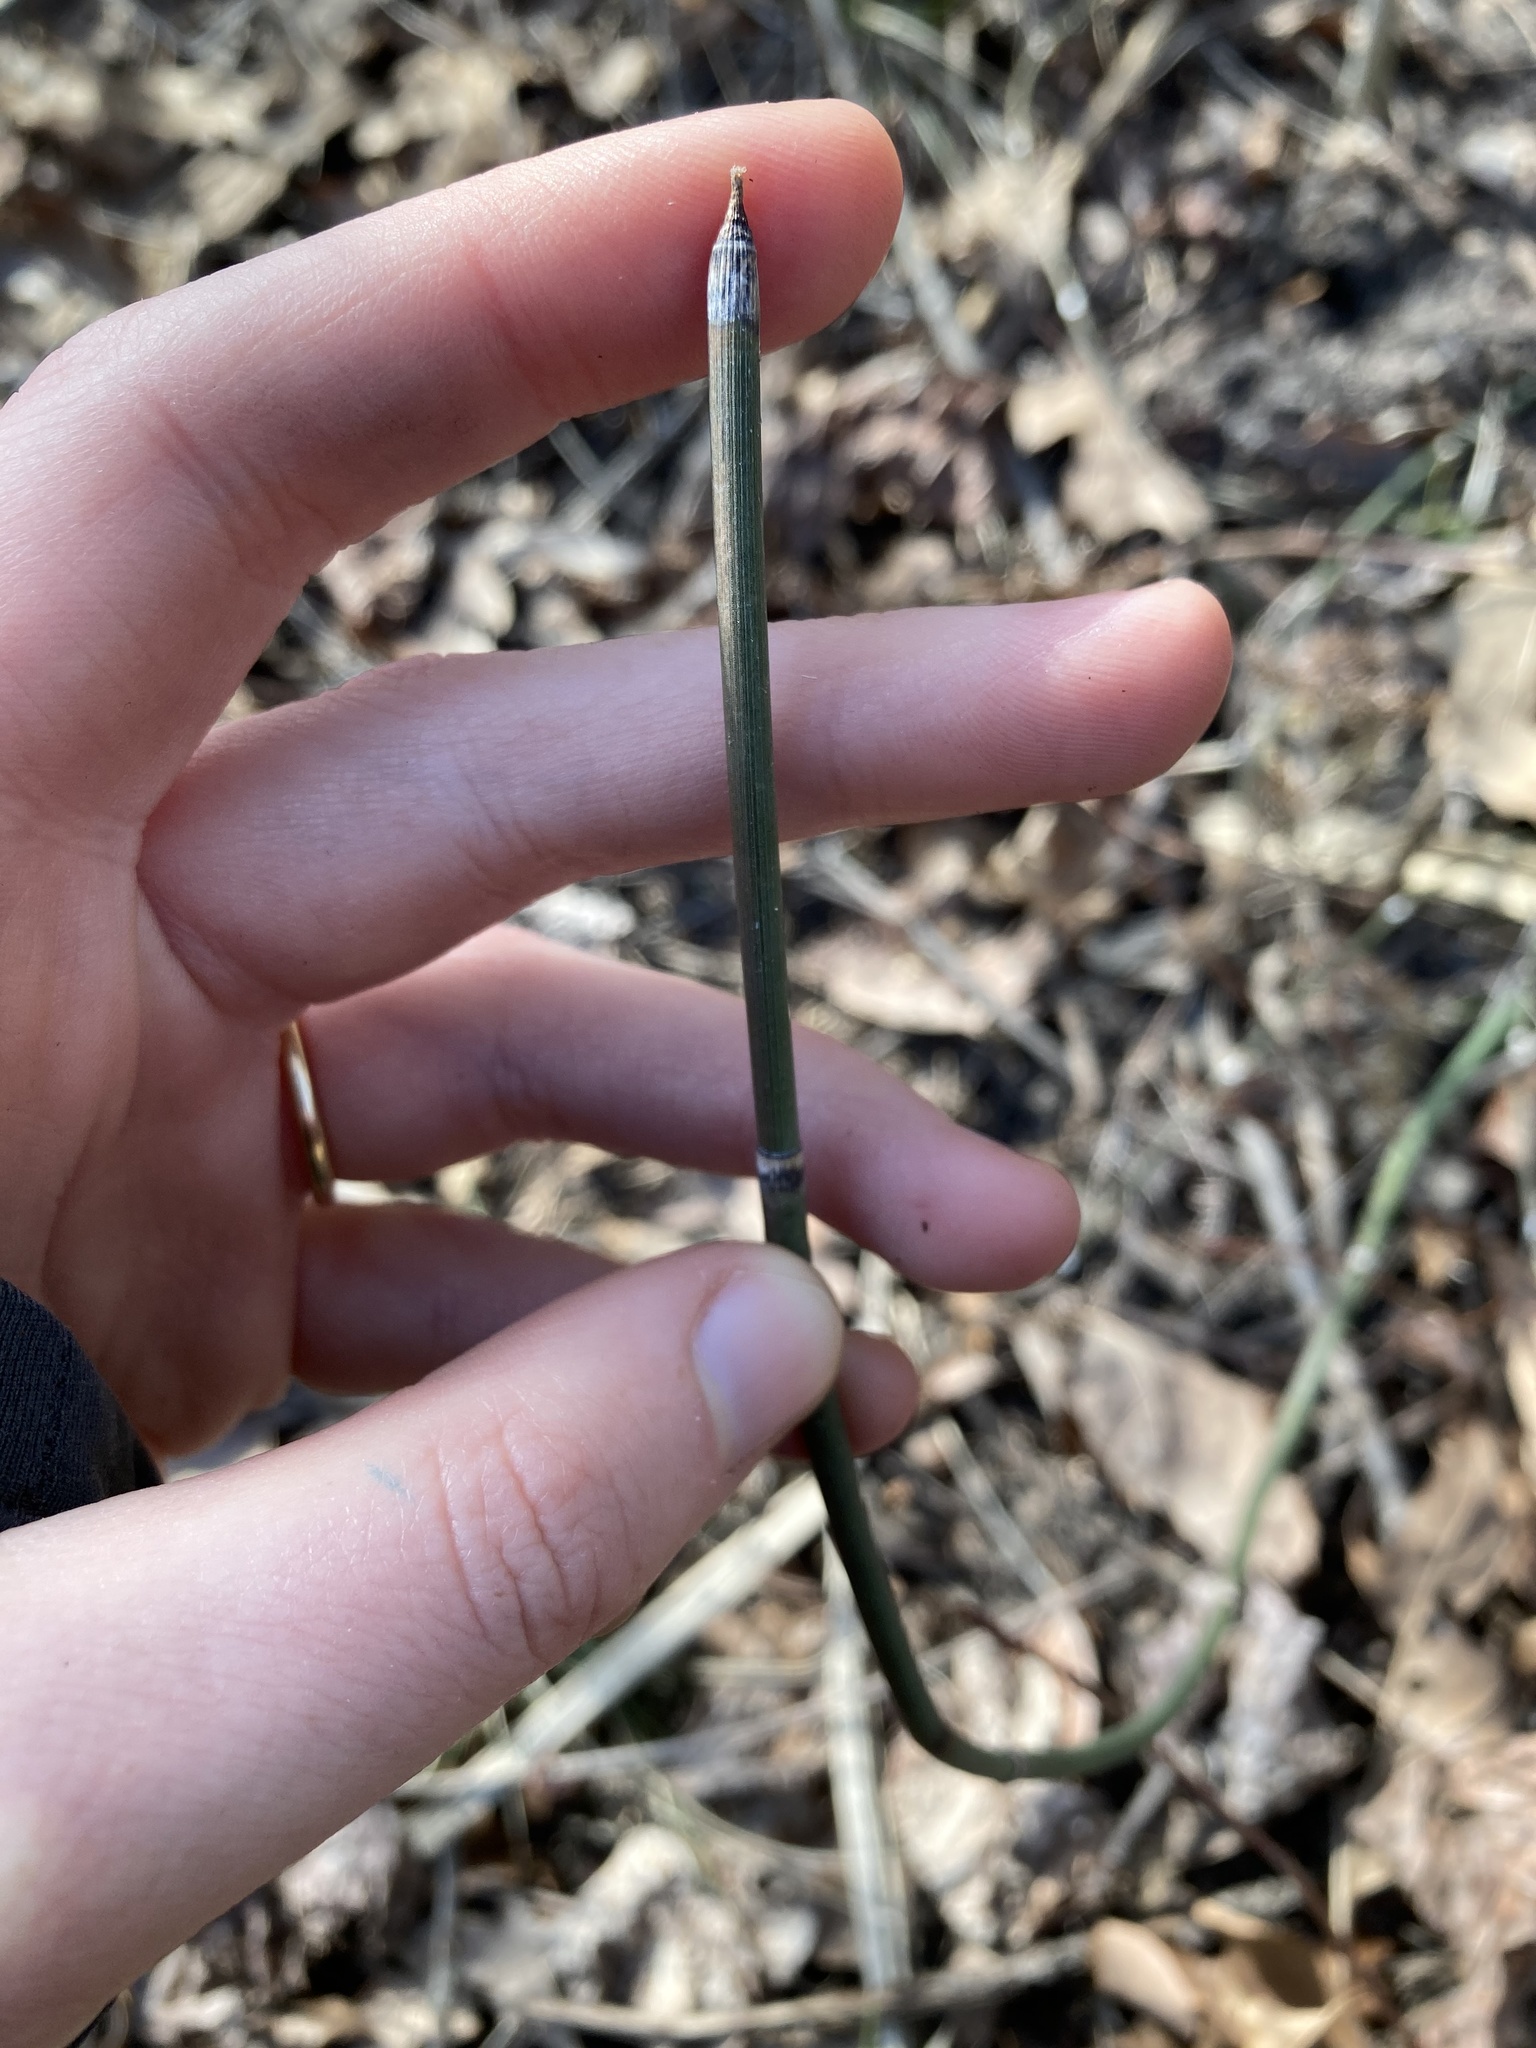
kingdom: Plantae
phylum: Tracheophyta
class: Polypodiopsida
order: Equisetales
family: Equisetaceae
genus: Equisetum
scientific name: Equisetum ferrissii
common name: Ferriss' horsetail
